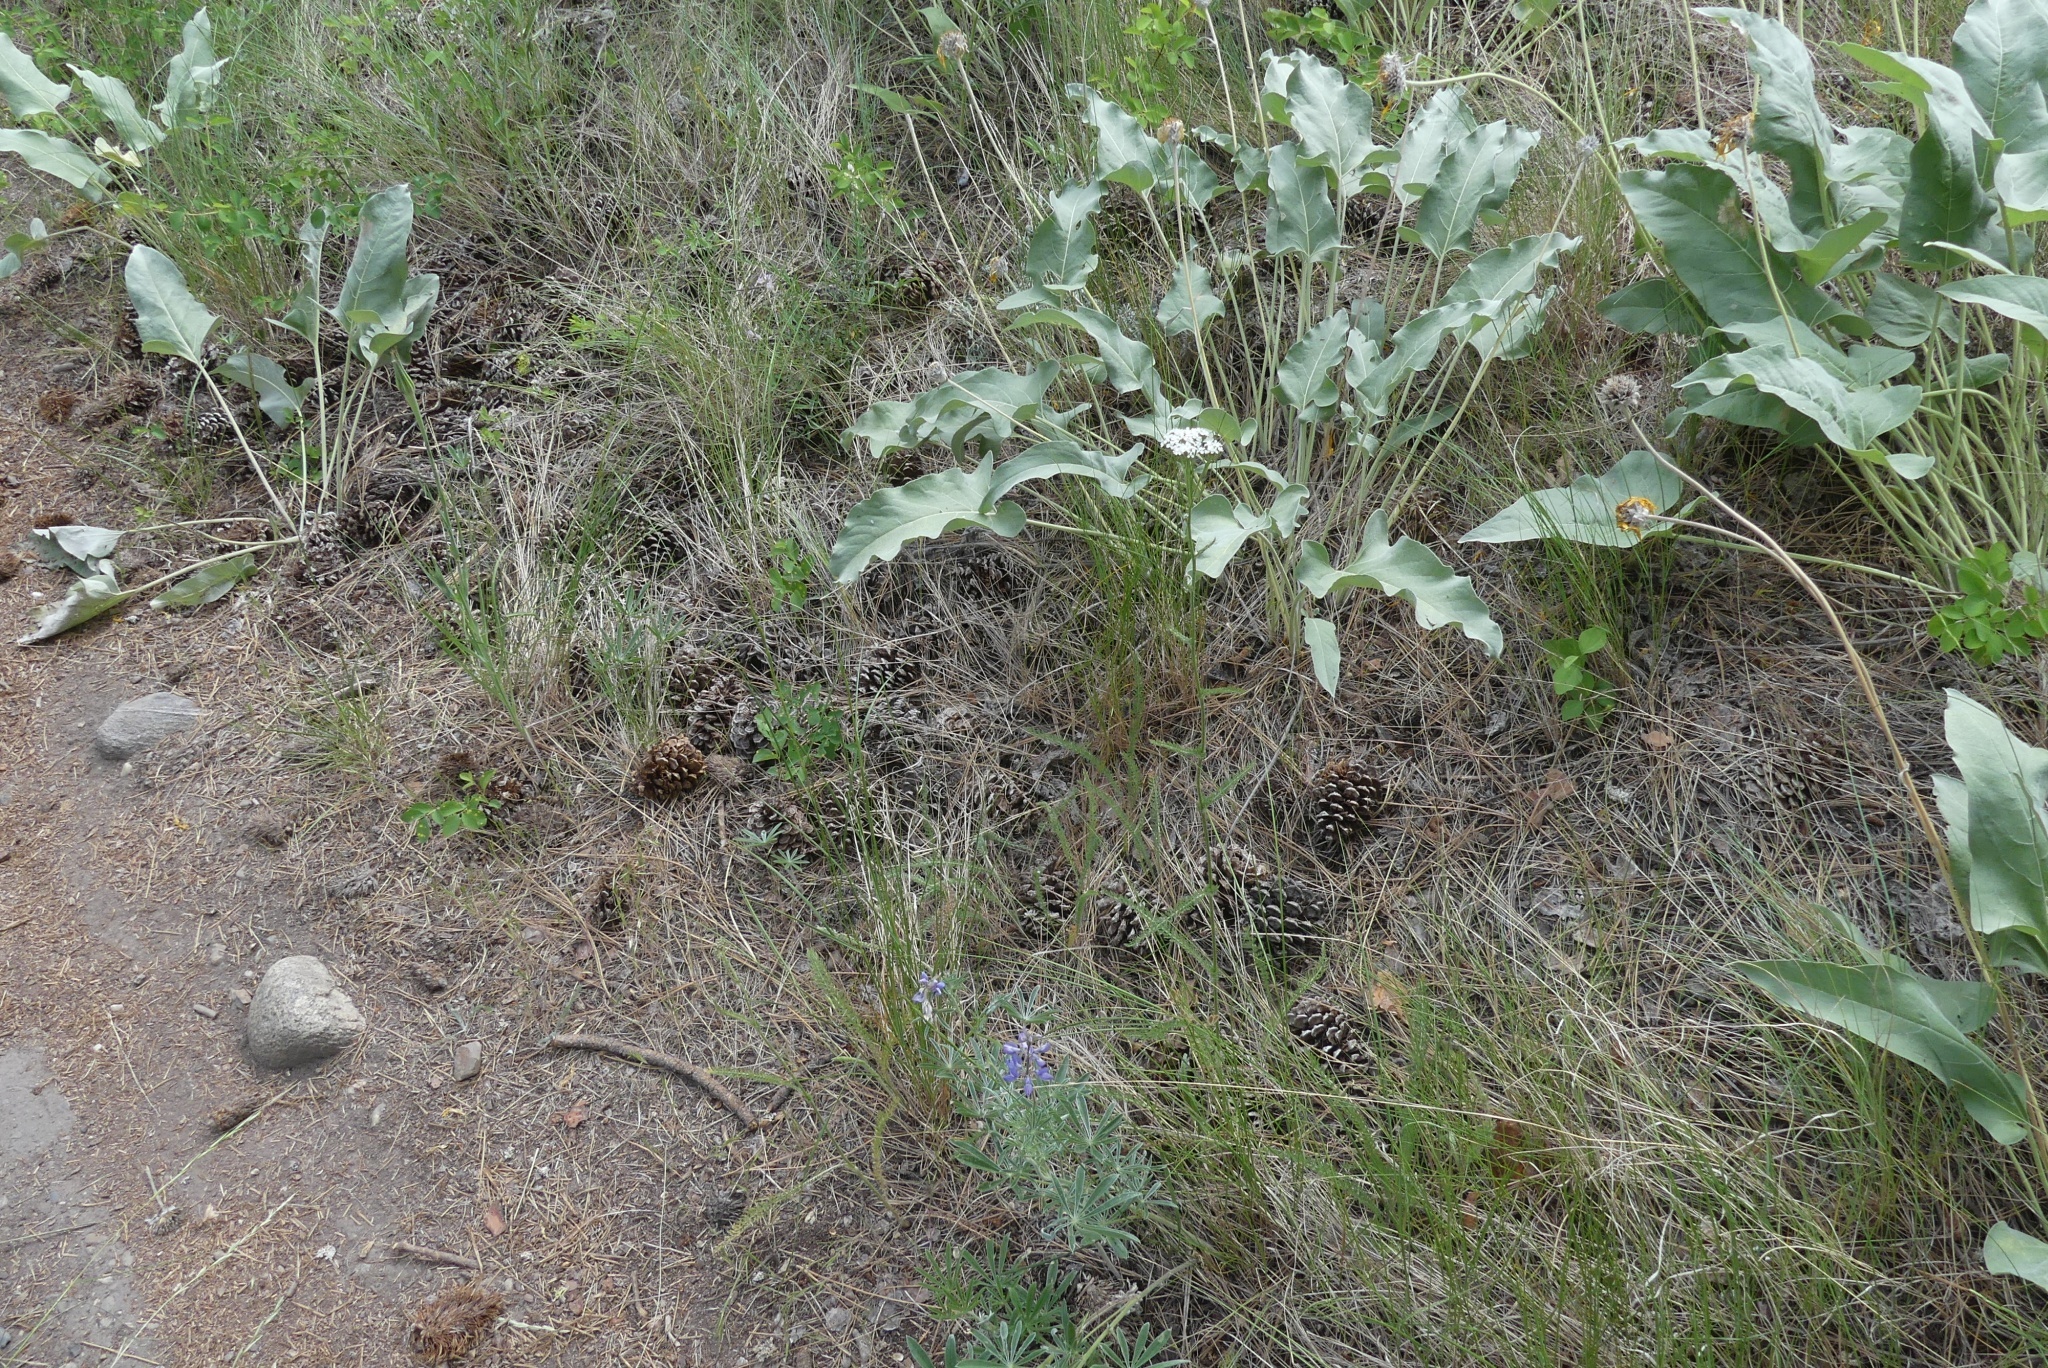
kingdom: Plantae
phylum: Tracheophyta
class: Pinopsida
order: Pinales
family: Pinaceae
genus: Pinus
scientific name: Pinus ponderosa
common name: Western yellow-pine
